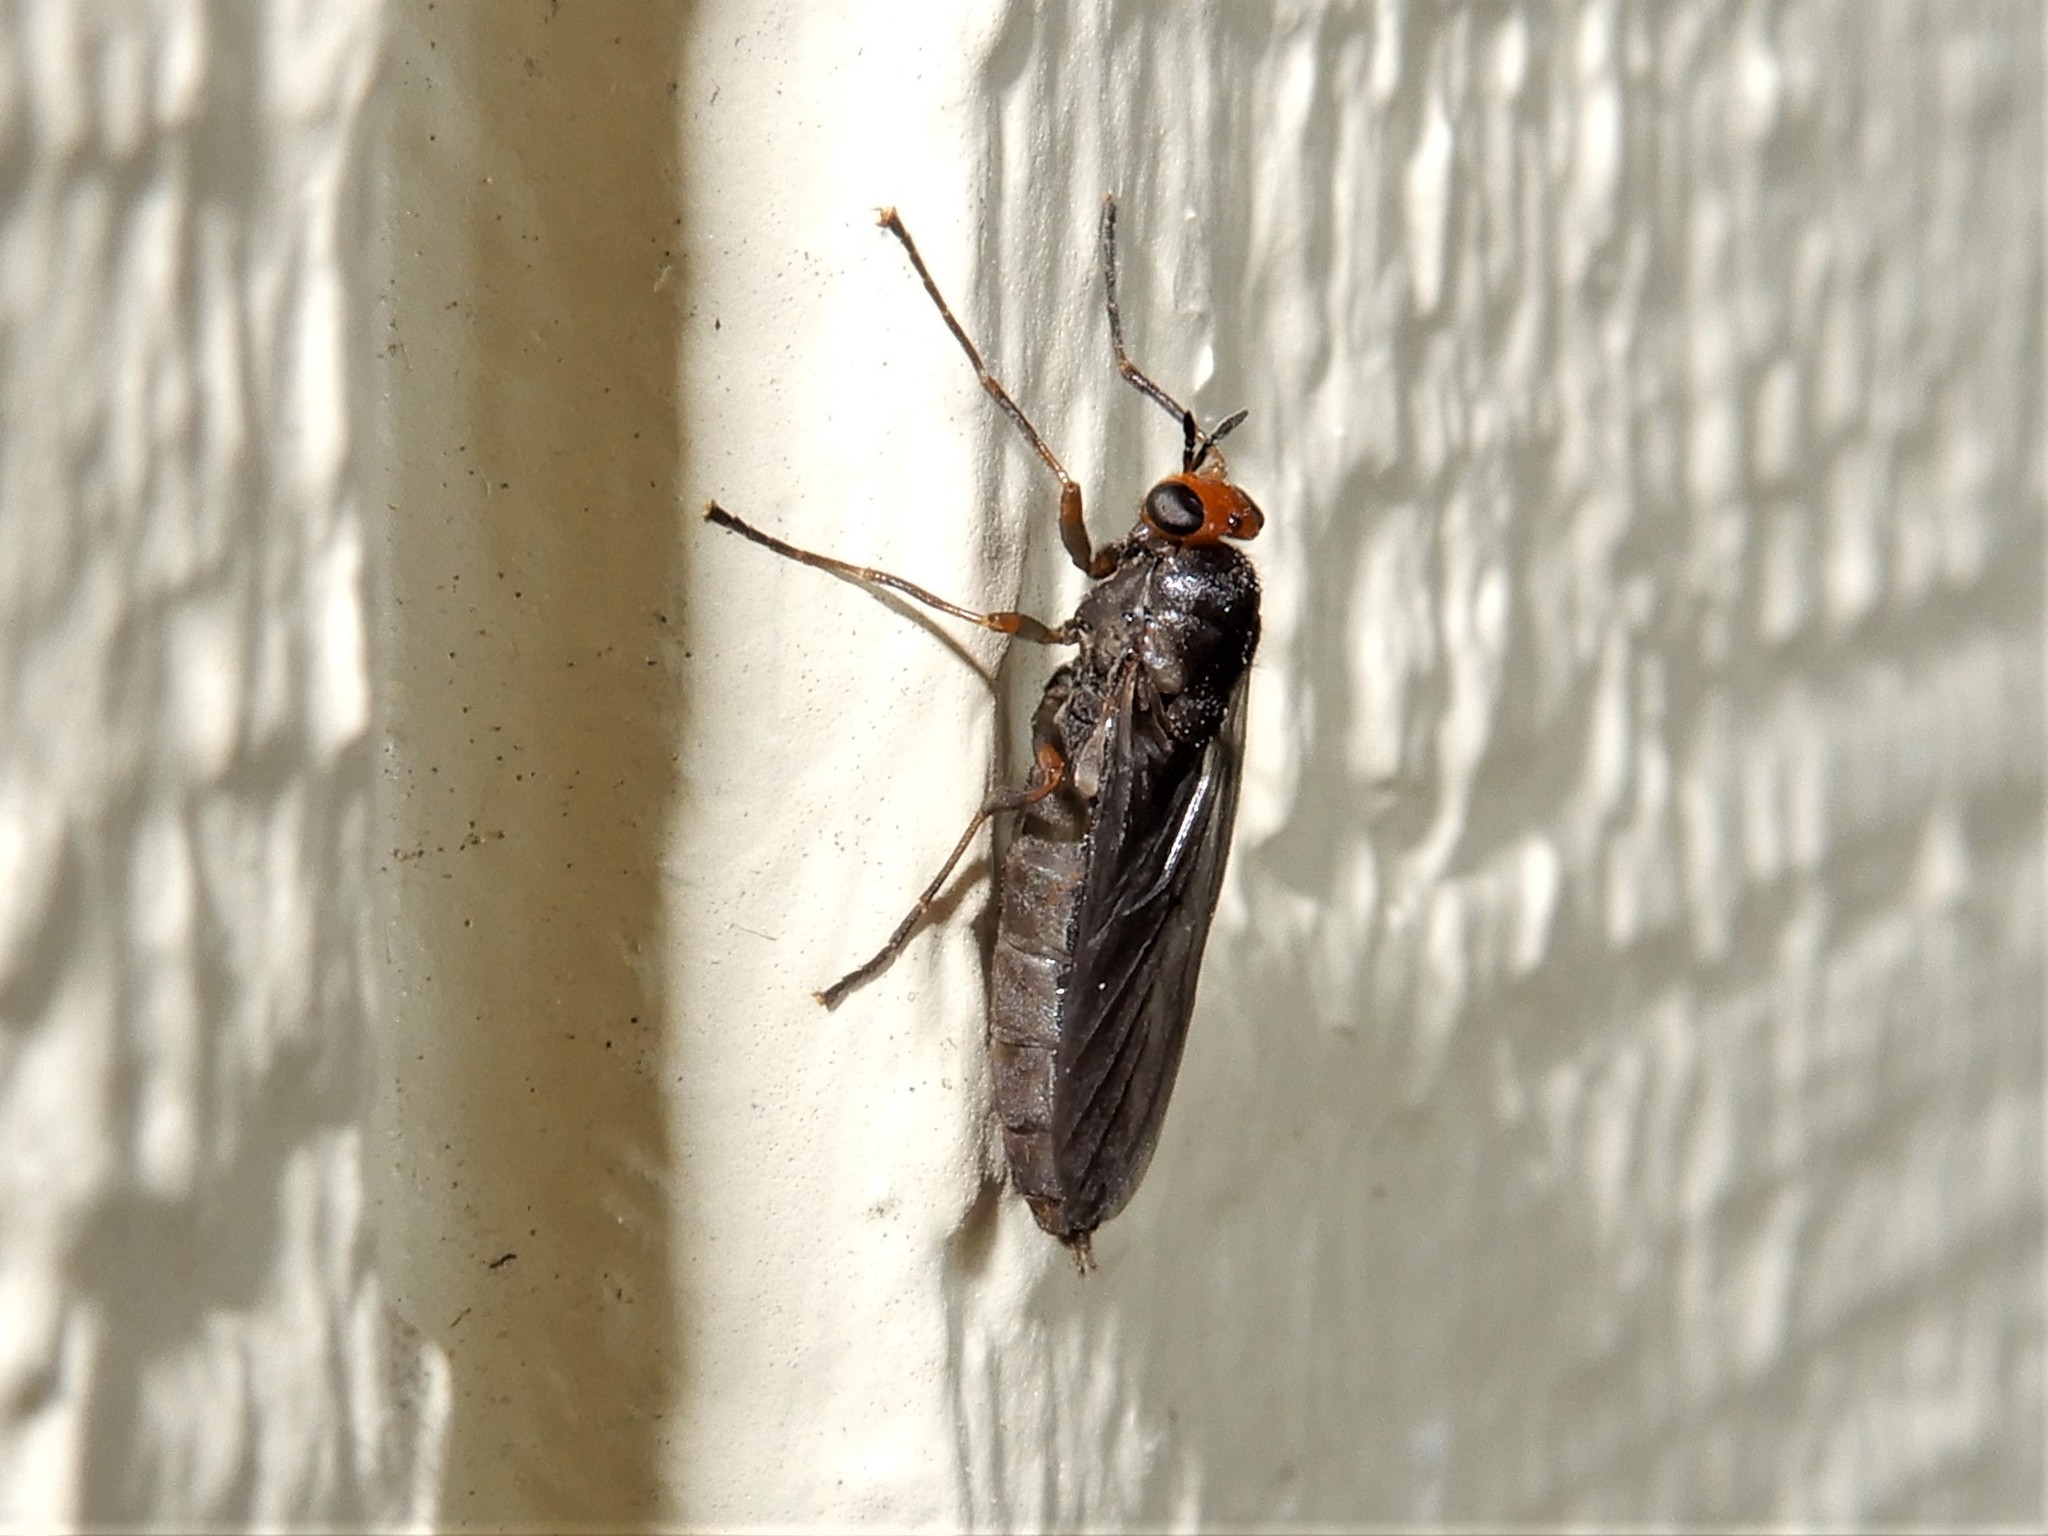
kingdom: Animalia
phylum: Arthropoda
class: Insecta
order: Diptera
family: Stratiomyidae
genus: Inopus
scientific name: Inopus rubriceps
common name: Soldier fly
